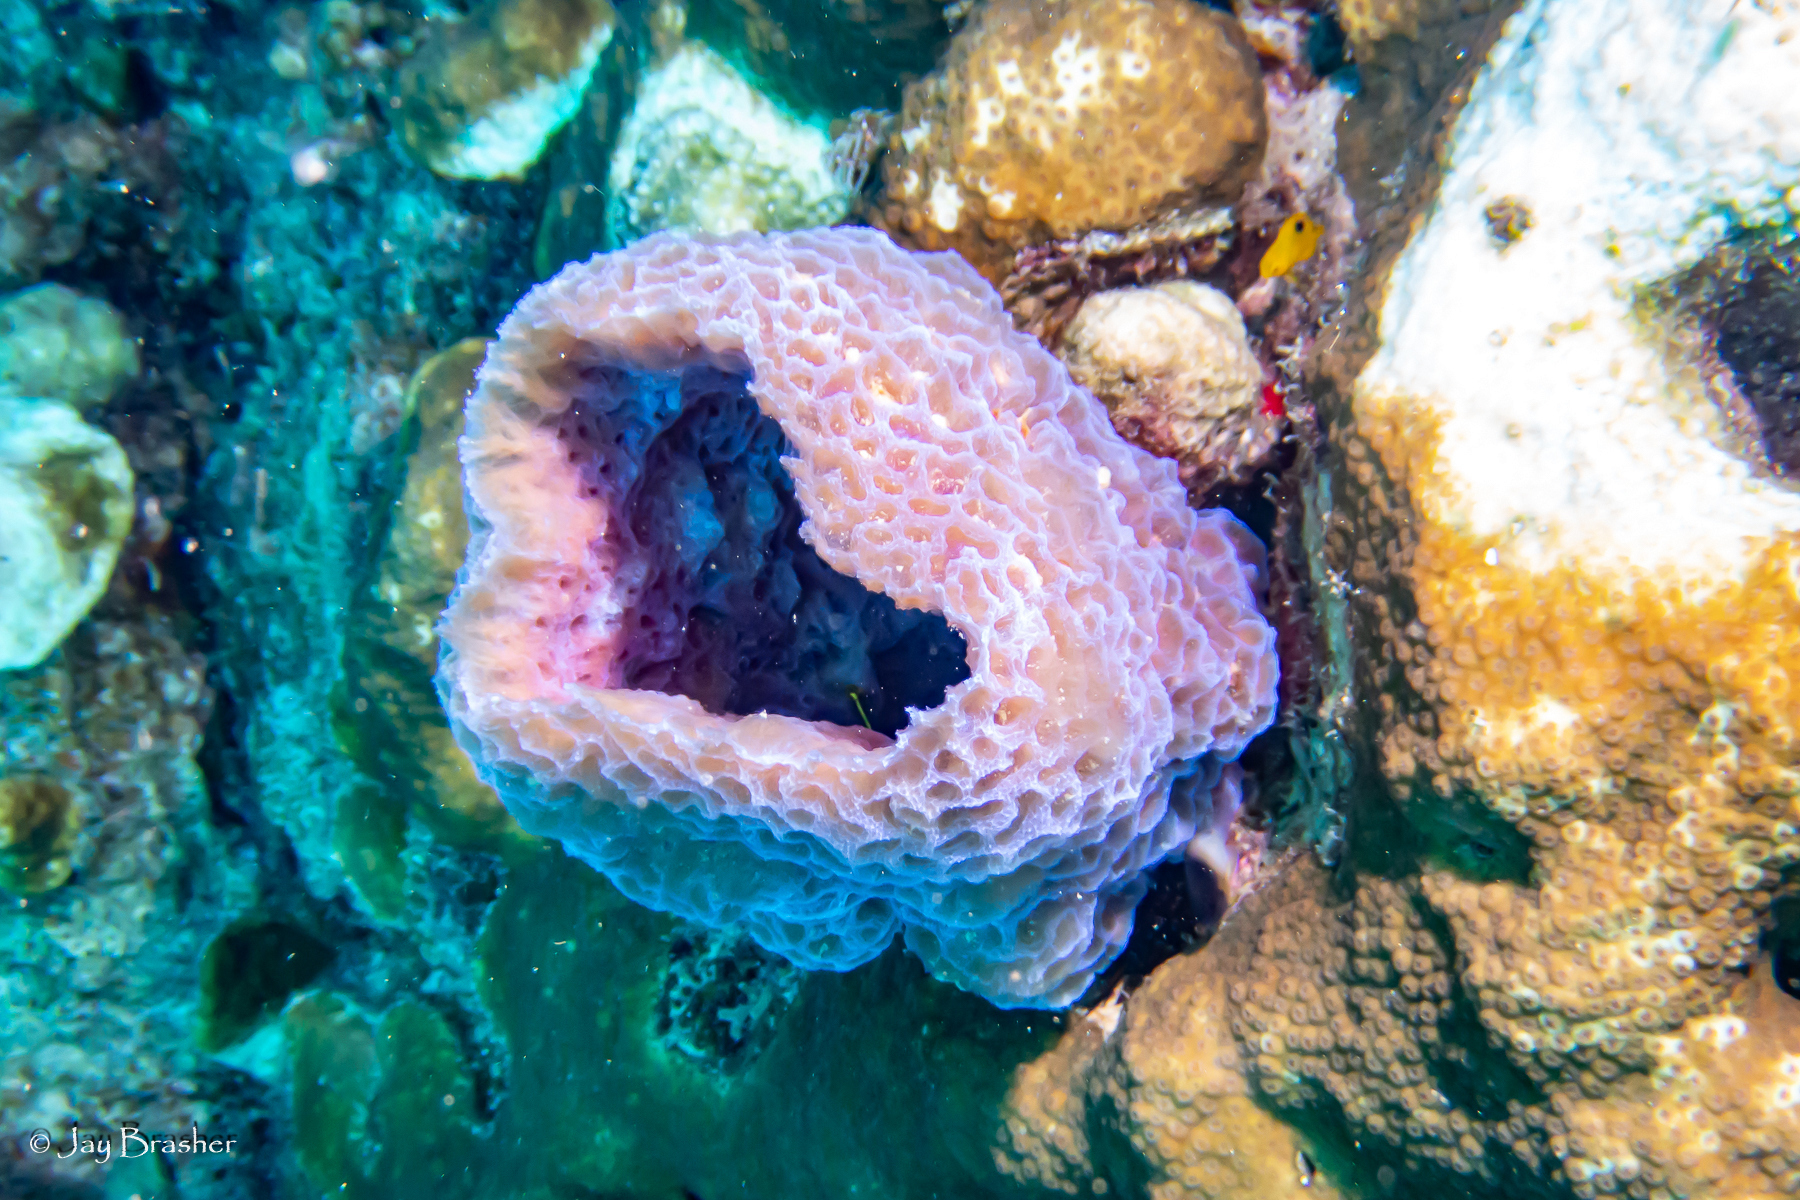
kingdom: Animalia
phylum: Porifera
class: Demospongiae
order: Haplosclerida
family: Callyspongiidae
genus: Callyspongia
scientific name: Callyspongia plicifera
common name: Azure vase sponge
